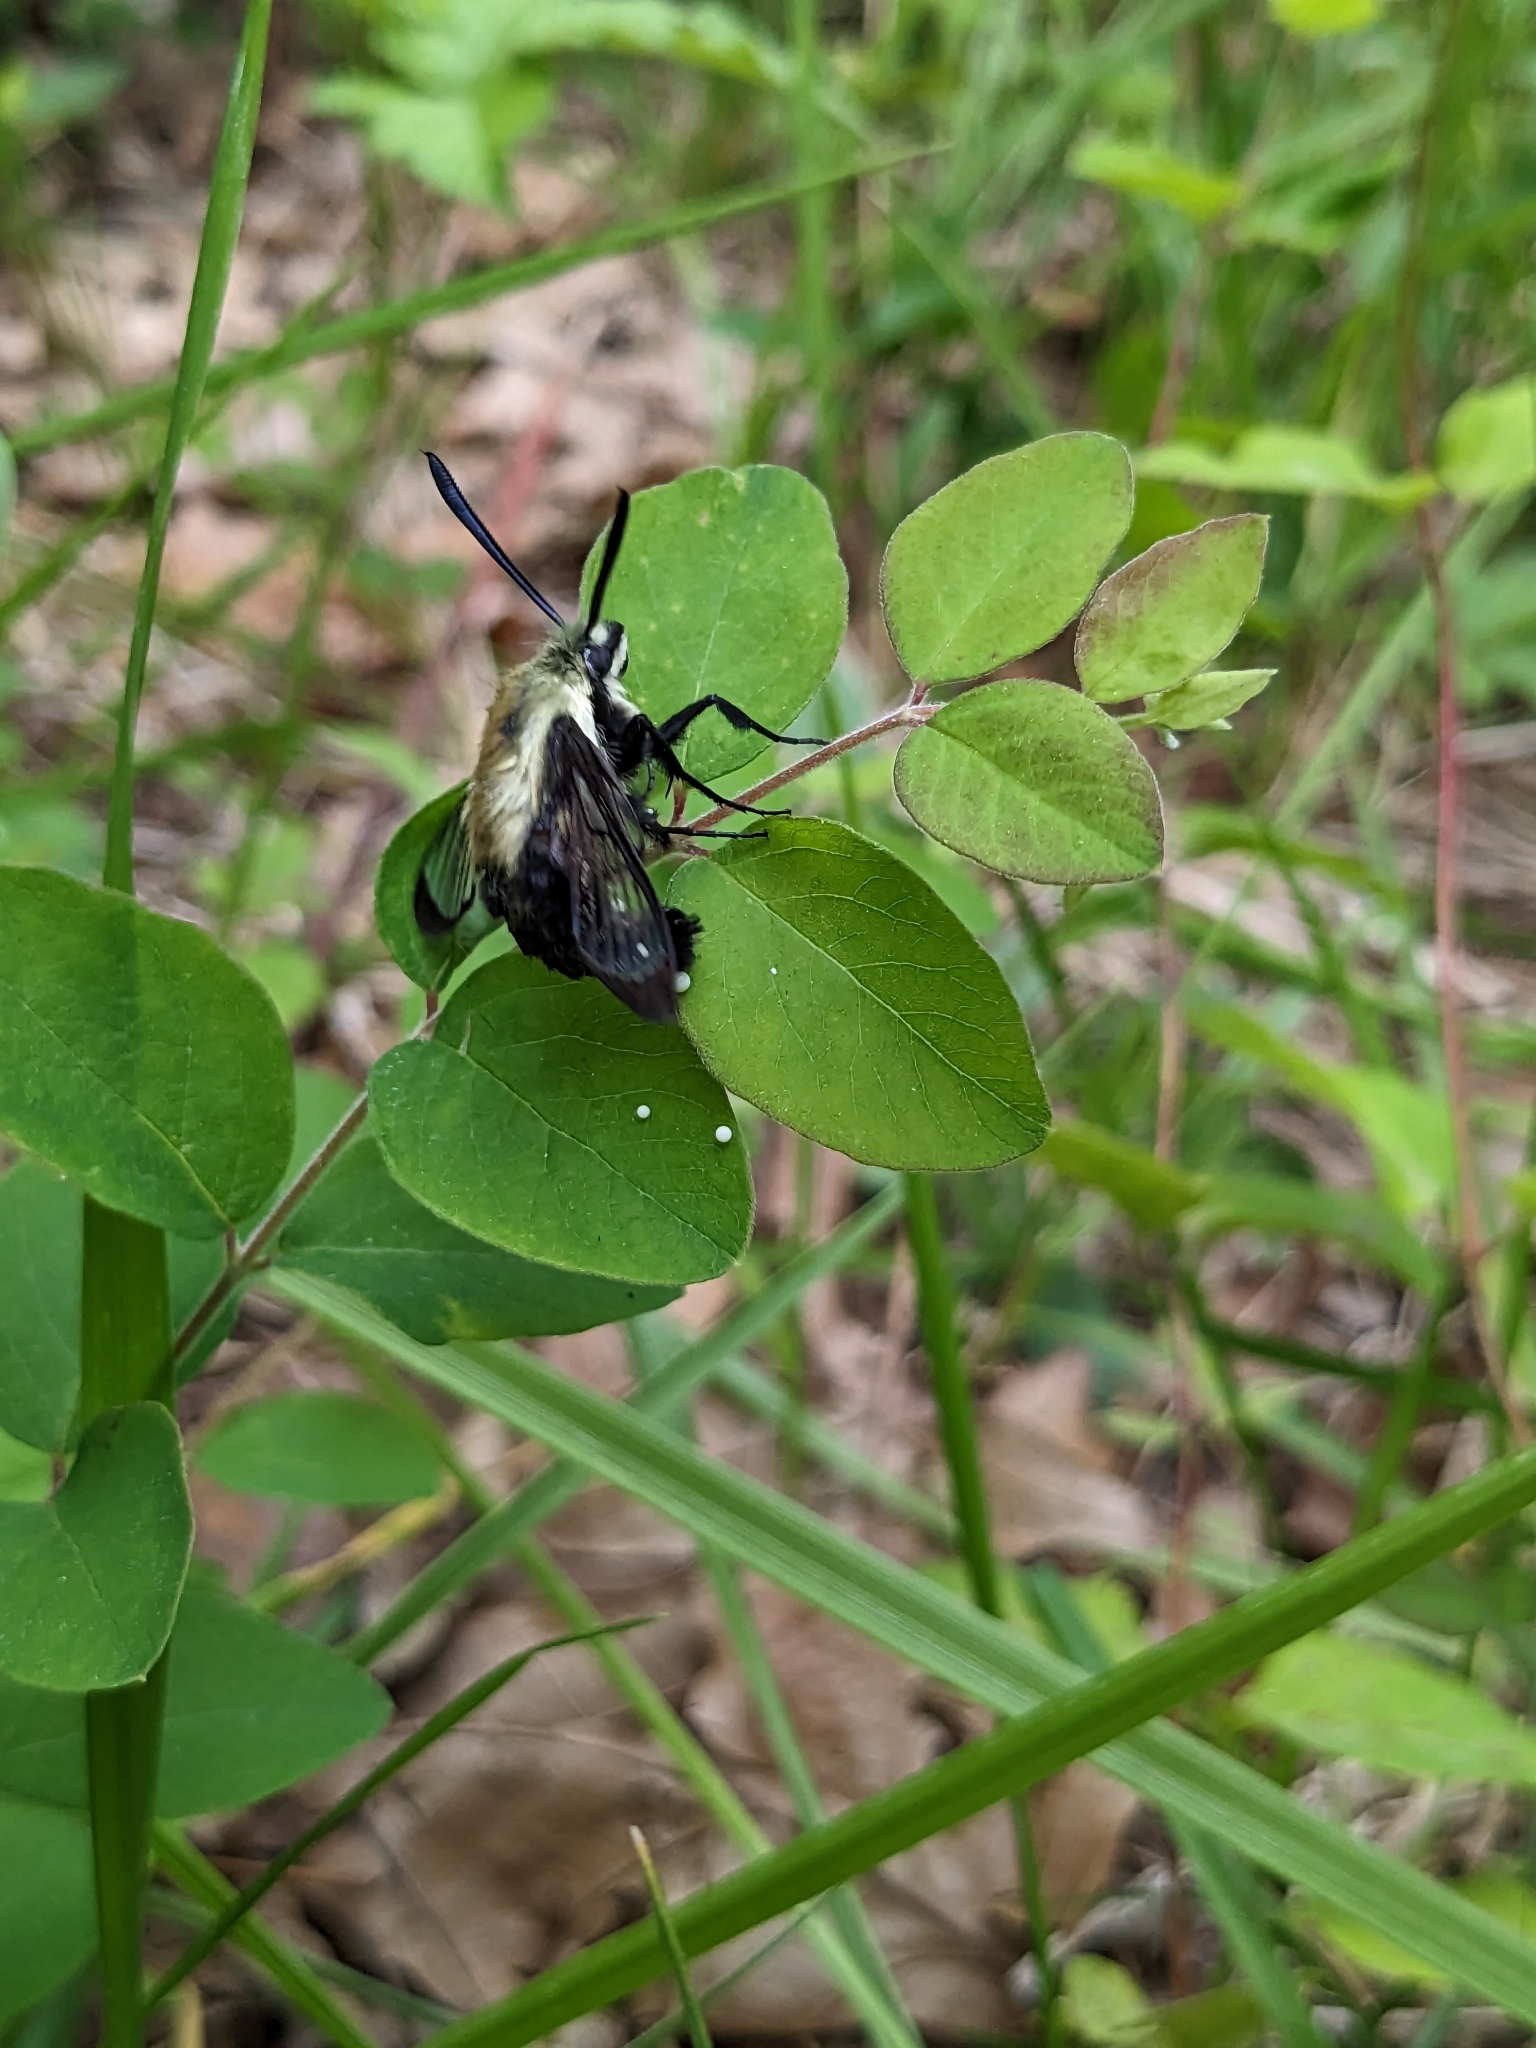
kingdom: Animalia
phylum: Arthropoda
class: Insecta
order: Lepidoptera
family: Sphingidae
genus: Hemaris
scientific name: Hemaris diffinis
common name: Bumblebee moth
